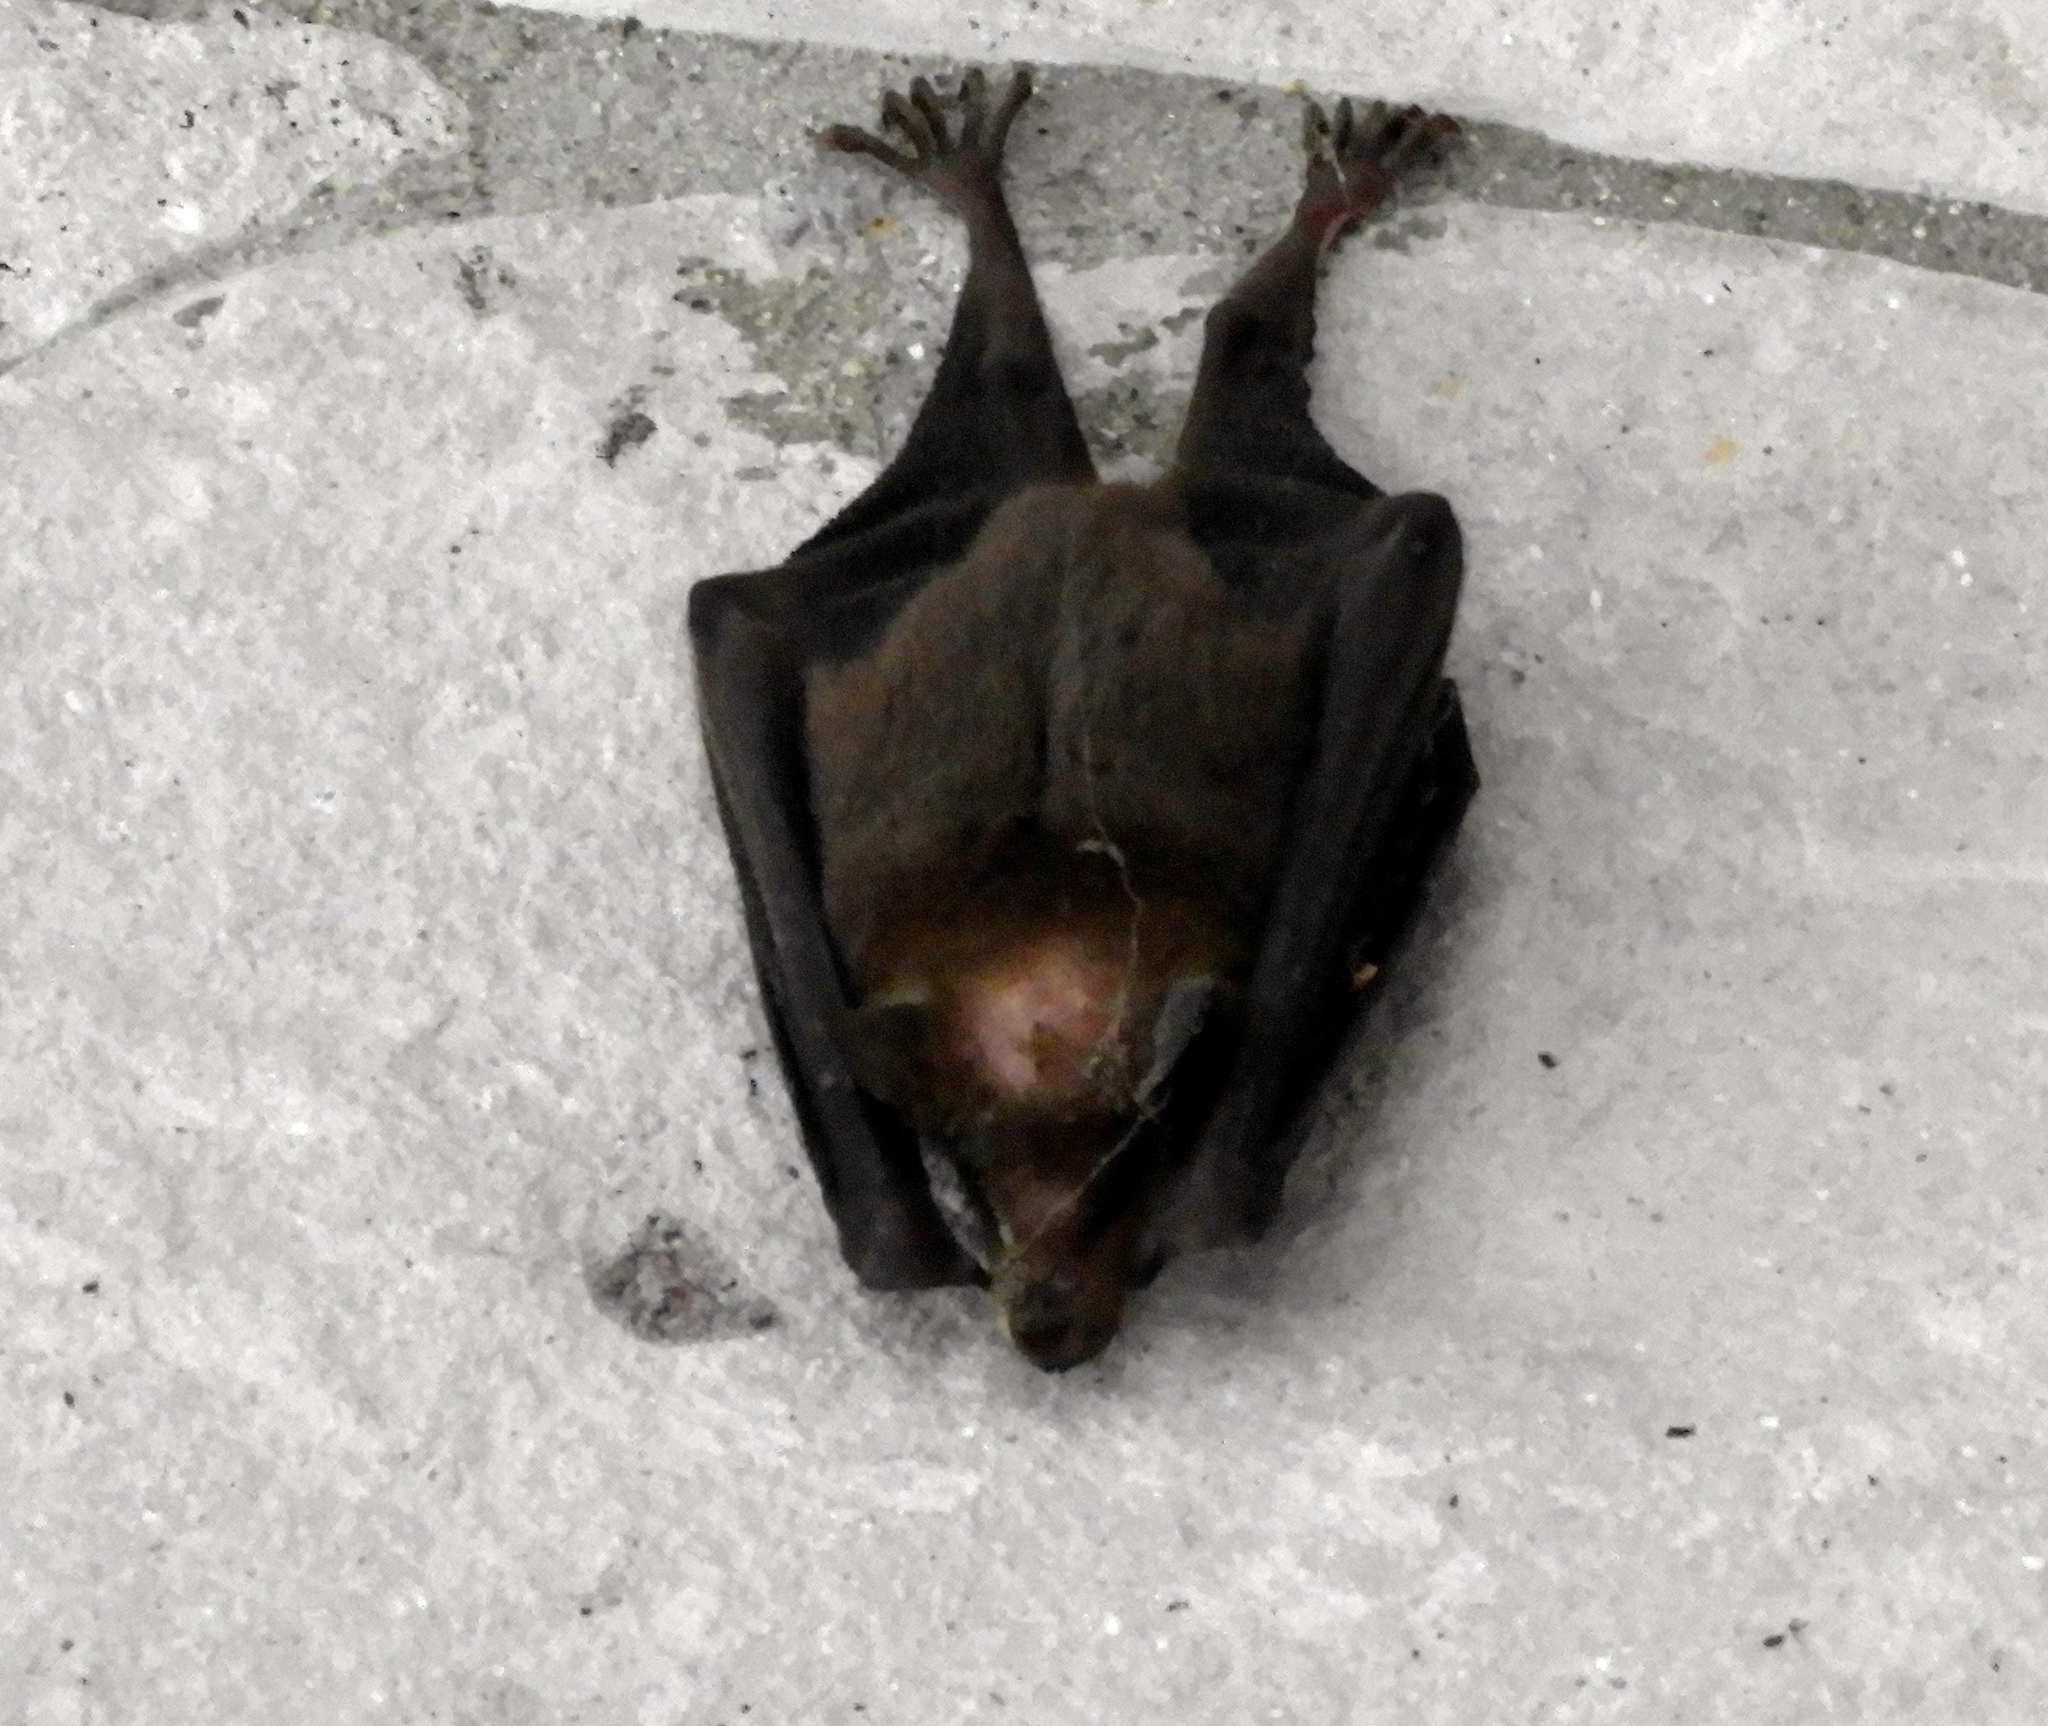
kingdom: Animalia
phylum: Chordata
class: Mammalia
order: Chiroptera
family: Phyllostomidae
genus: Leptonycteris
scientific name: Leptonycteris yerbabuenae
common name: Lesser long-nosed bat
